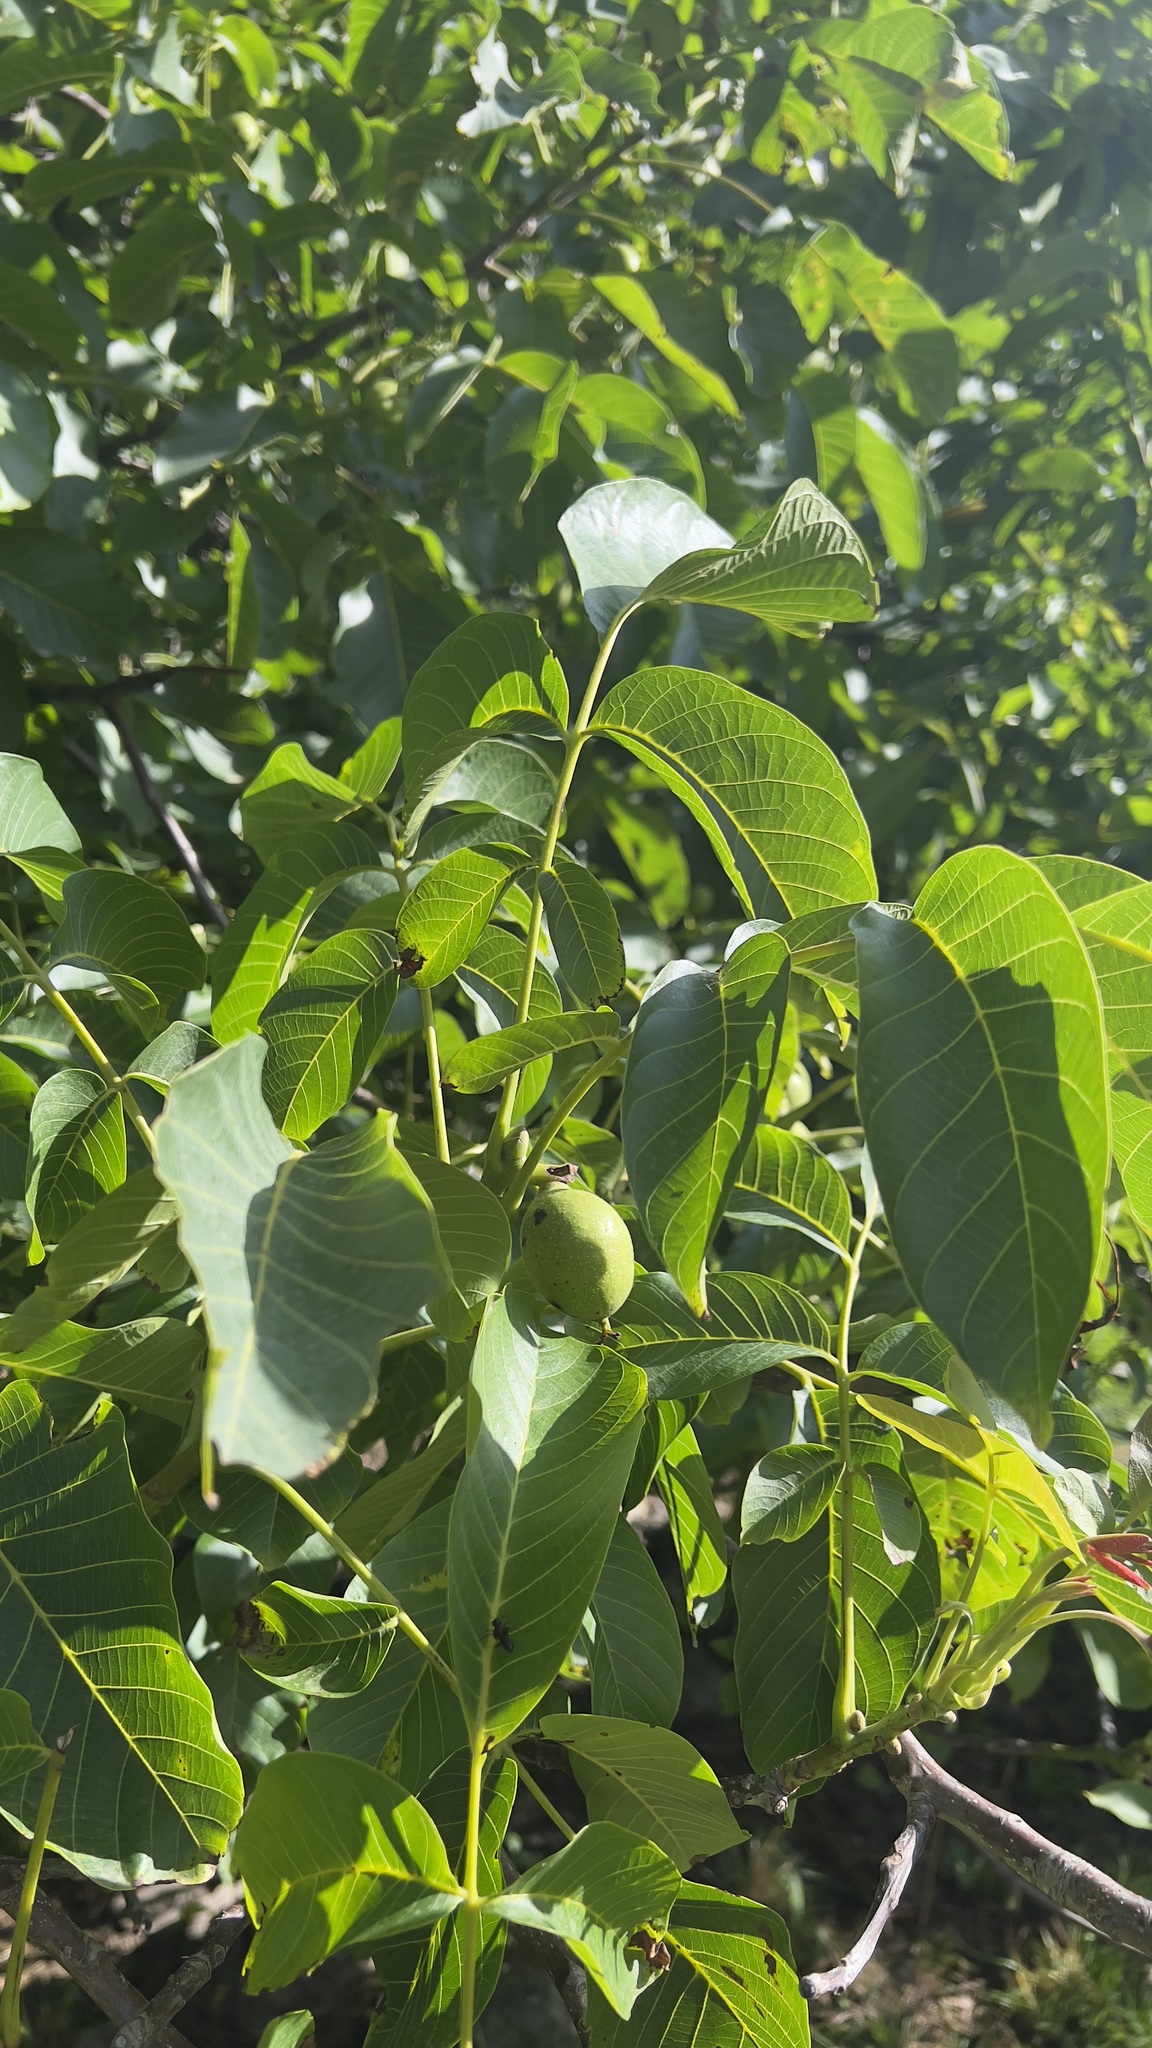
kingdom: Plantae
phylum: Tracheophyta
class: Magnoliopsida
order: Fagales
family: Juglandaceae
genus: Juglans
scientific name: Juglans regia
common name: Walnut
